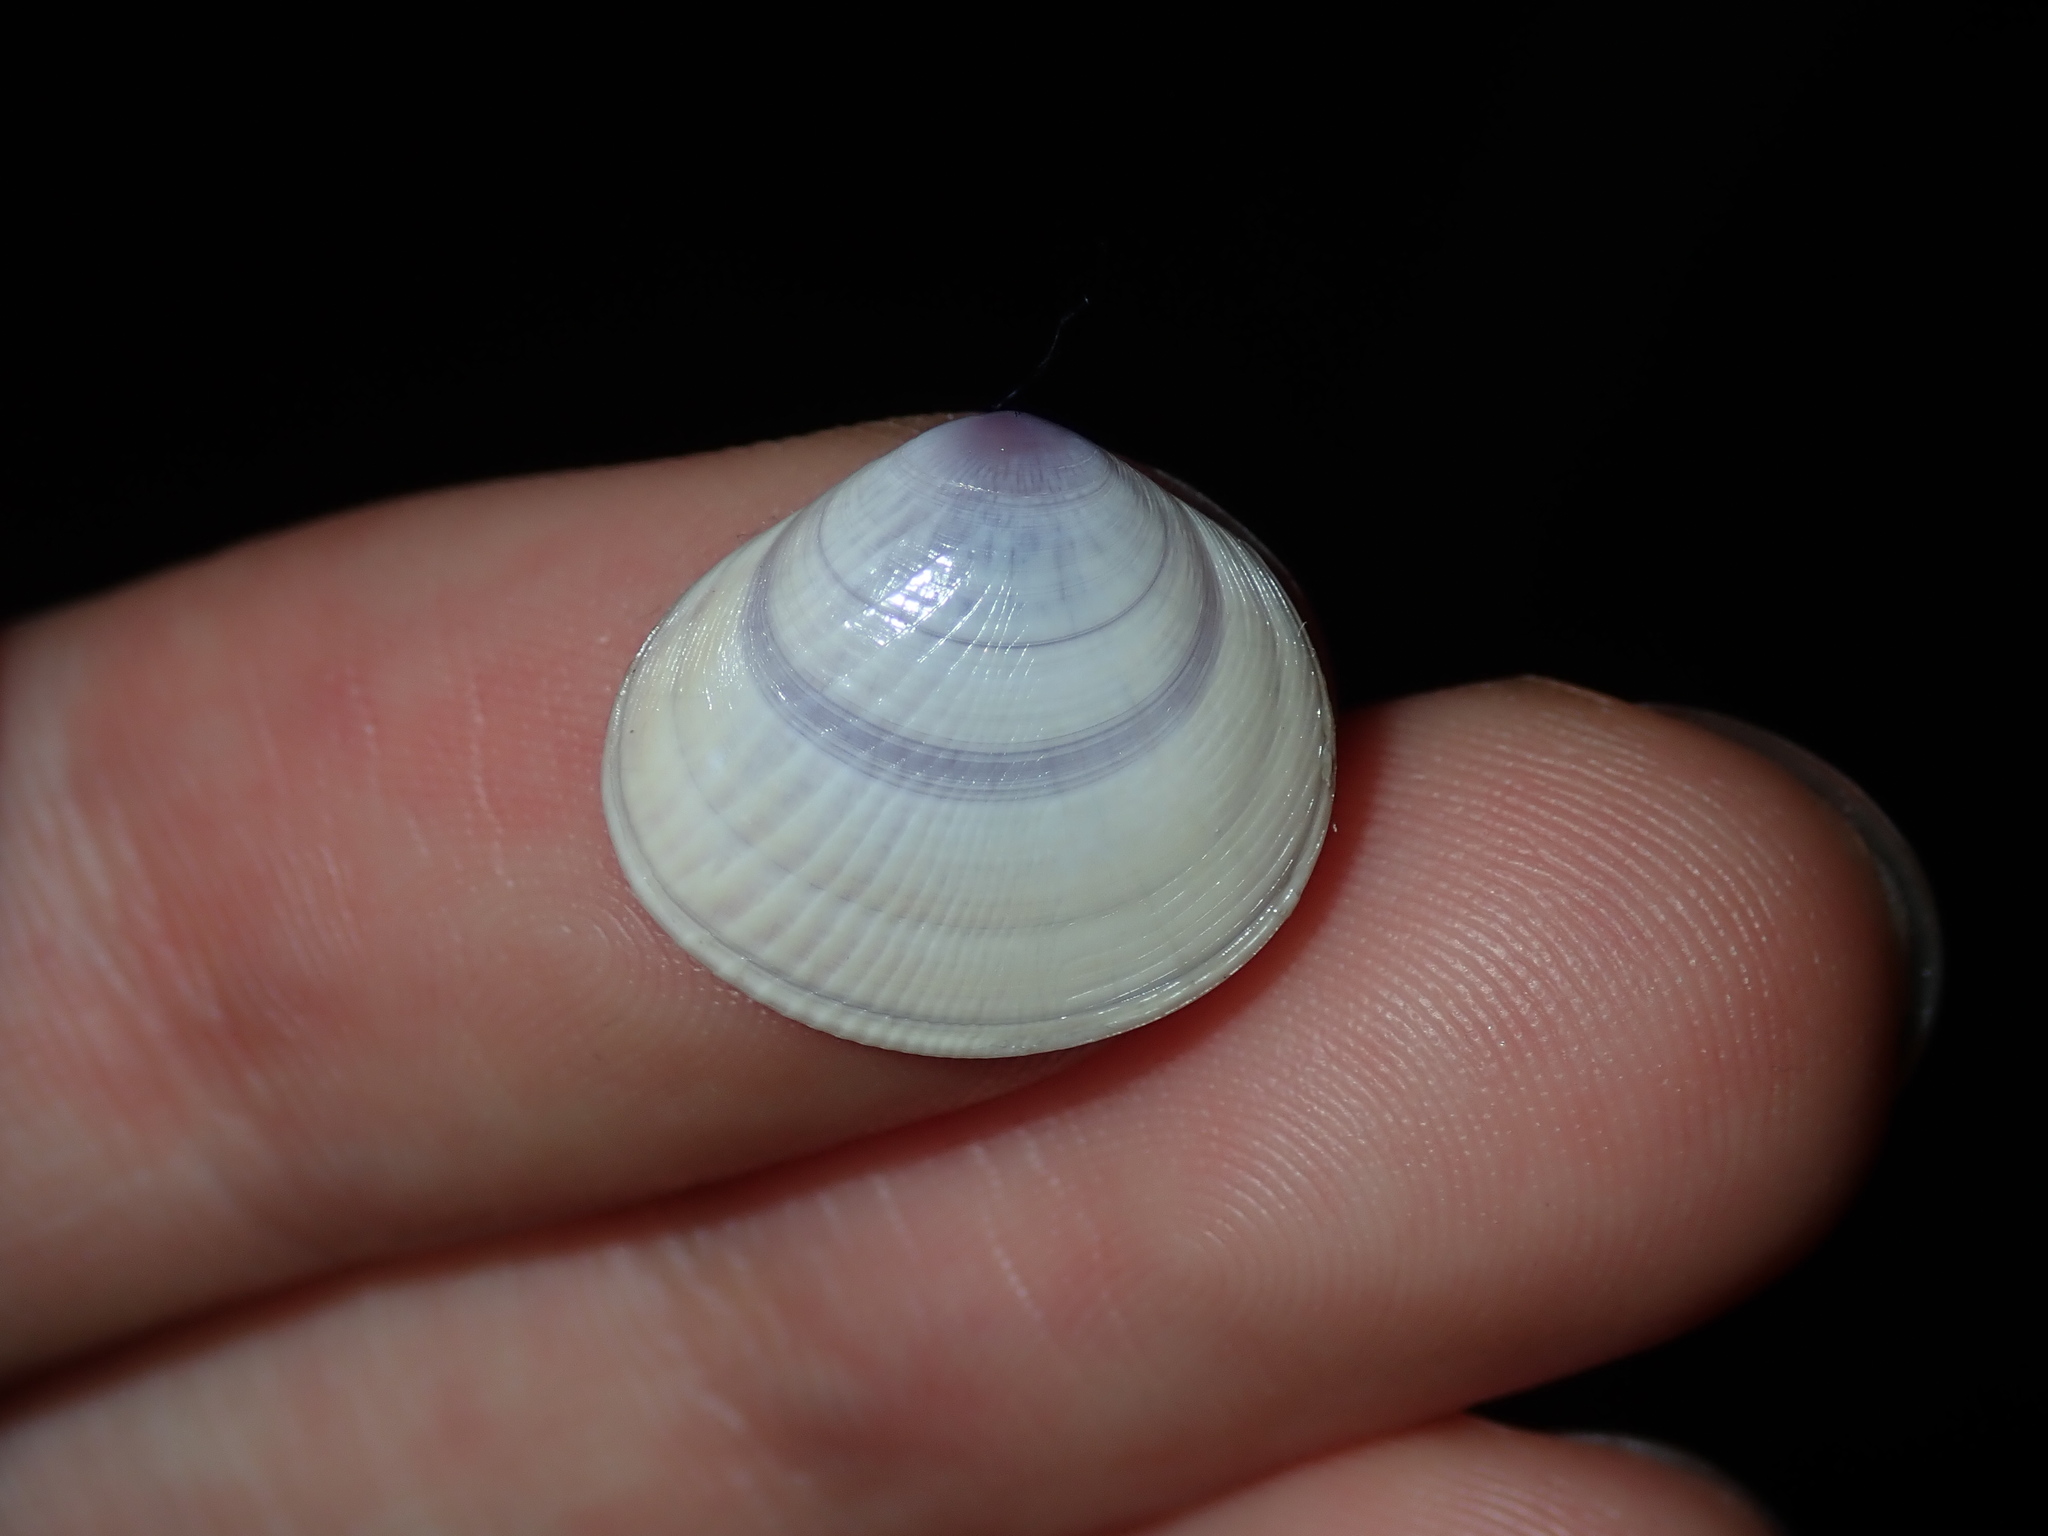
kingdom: Animalia
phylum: Mollusca
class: Bivalvia
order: Cardiida
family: Tellinidae
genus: Strigilla
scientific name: Strigilla euronia
